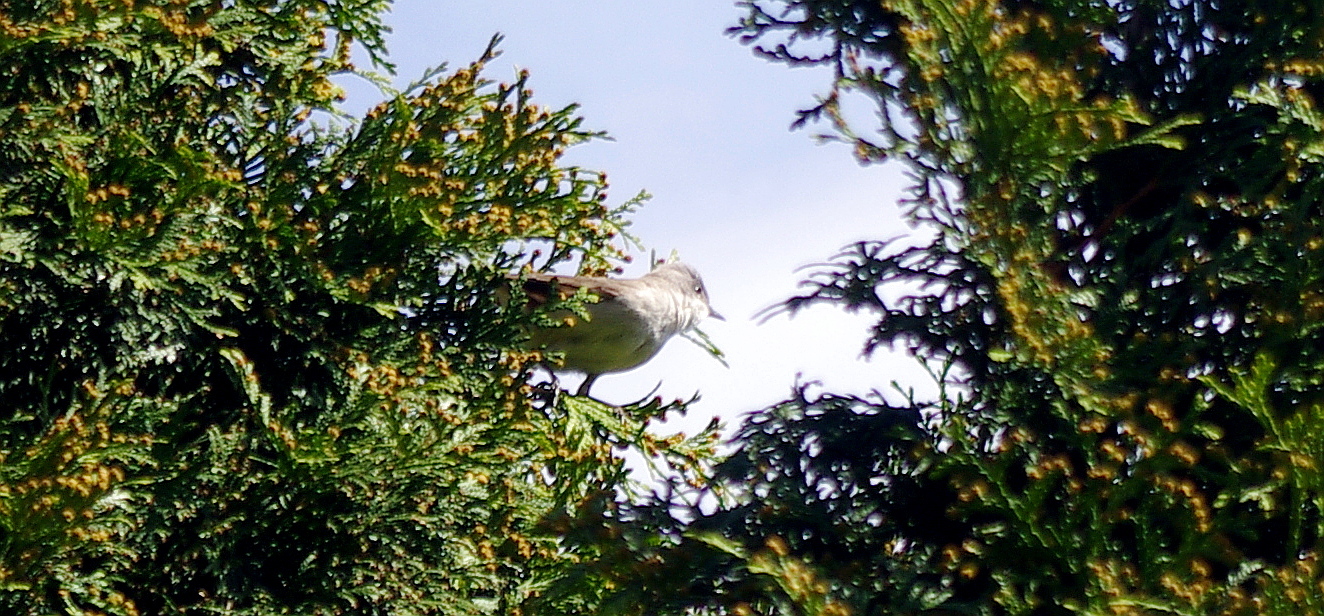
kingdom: Animalia
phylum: Chordata
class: Aves
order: Passeriformes
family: Sylviidae
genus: Sylvia
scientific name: Sylvia curruca
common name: Lesser whitethroat
